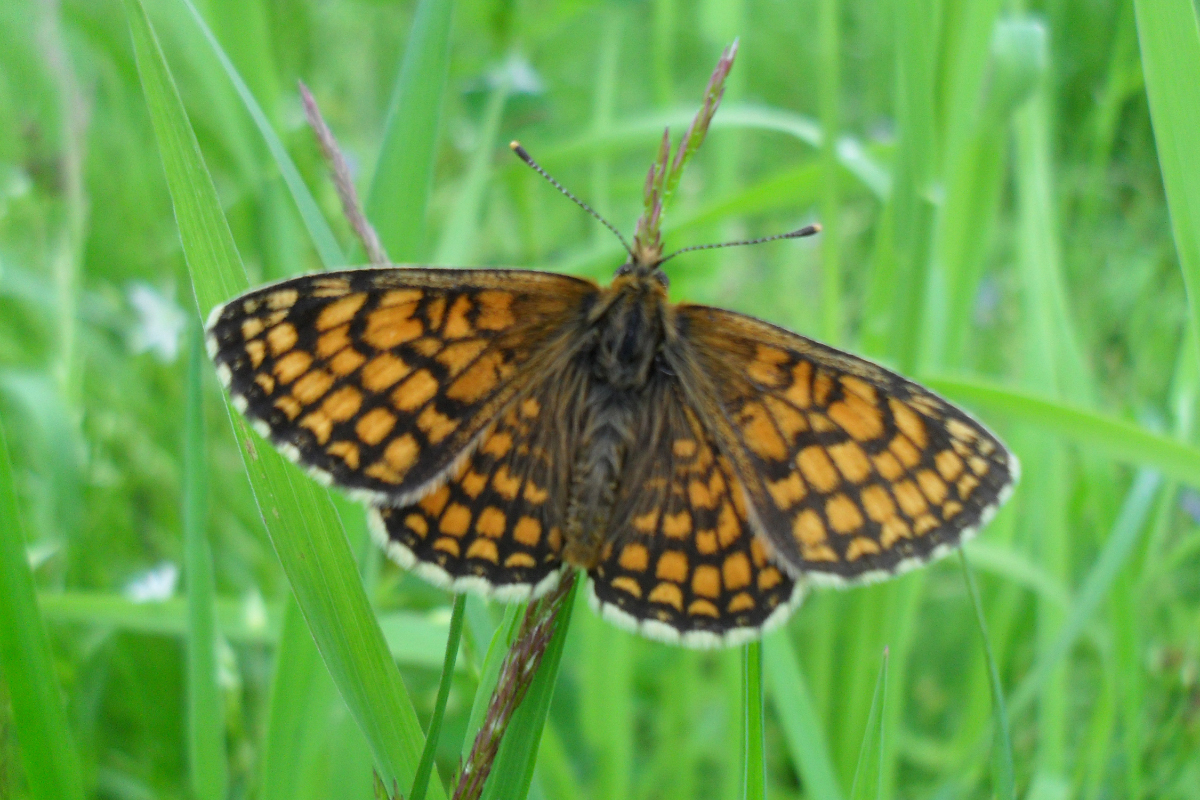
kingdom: Animalia
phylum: Arthropoda
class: Insecta
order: Lepidoptera
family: Nymphalidae
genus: Melitaea
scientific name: Melitaea athalia
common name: Heath fritillary
